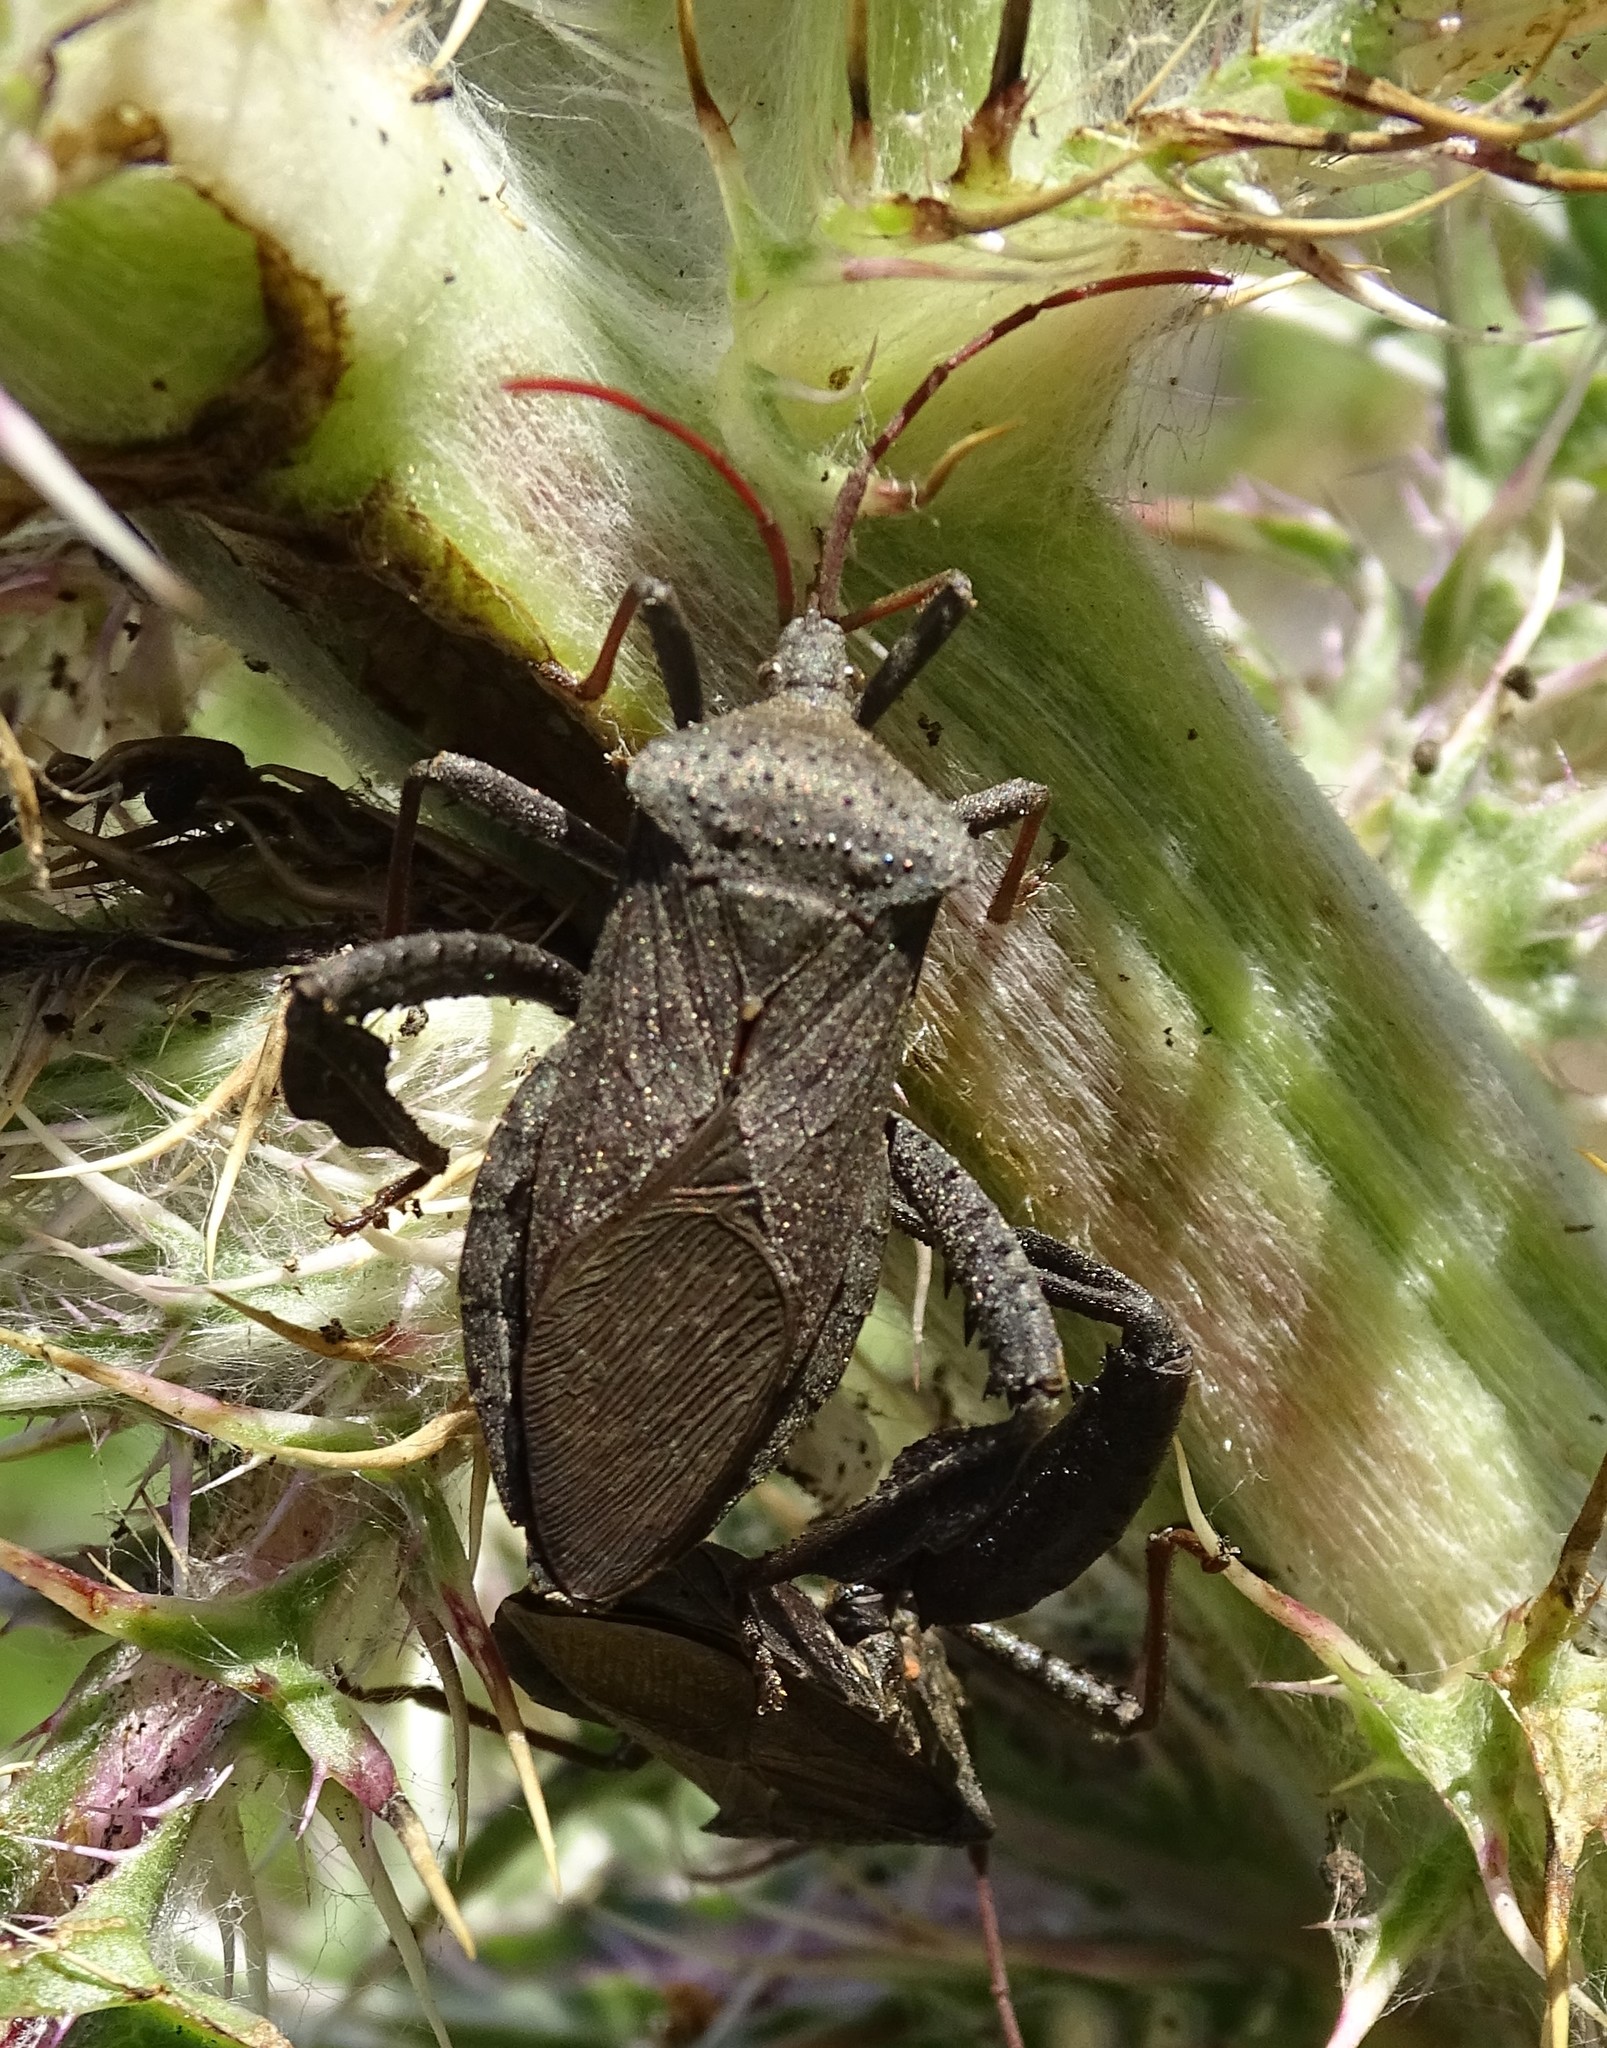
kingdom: Animalia
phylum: Arthropoda
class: Insecta
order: Hemiptera
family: Coreidae
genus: Acanthocephala
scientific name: Acanthocephala femorata
